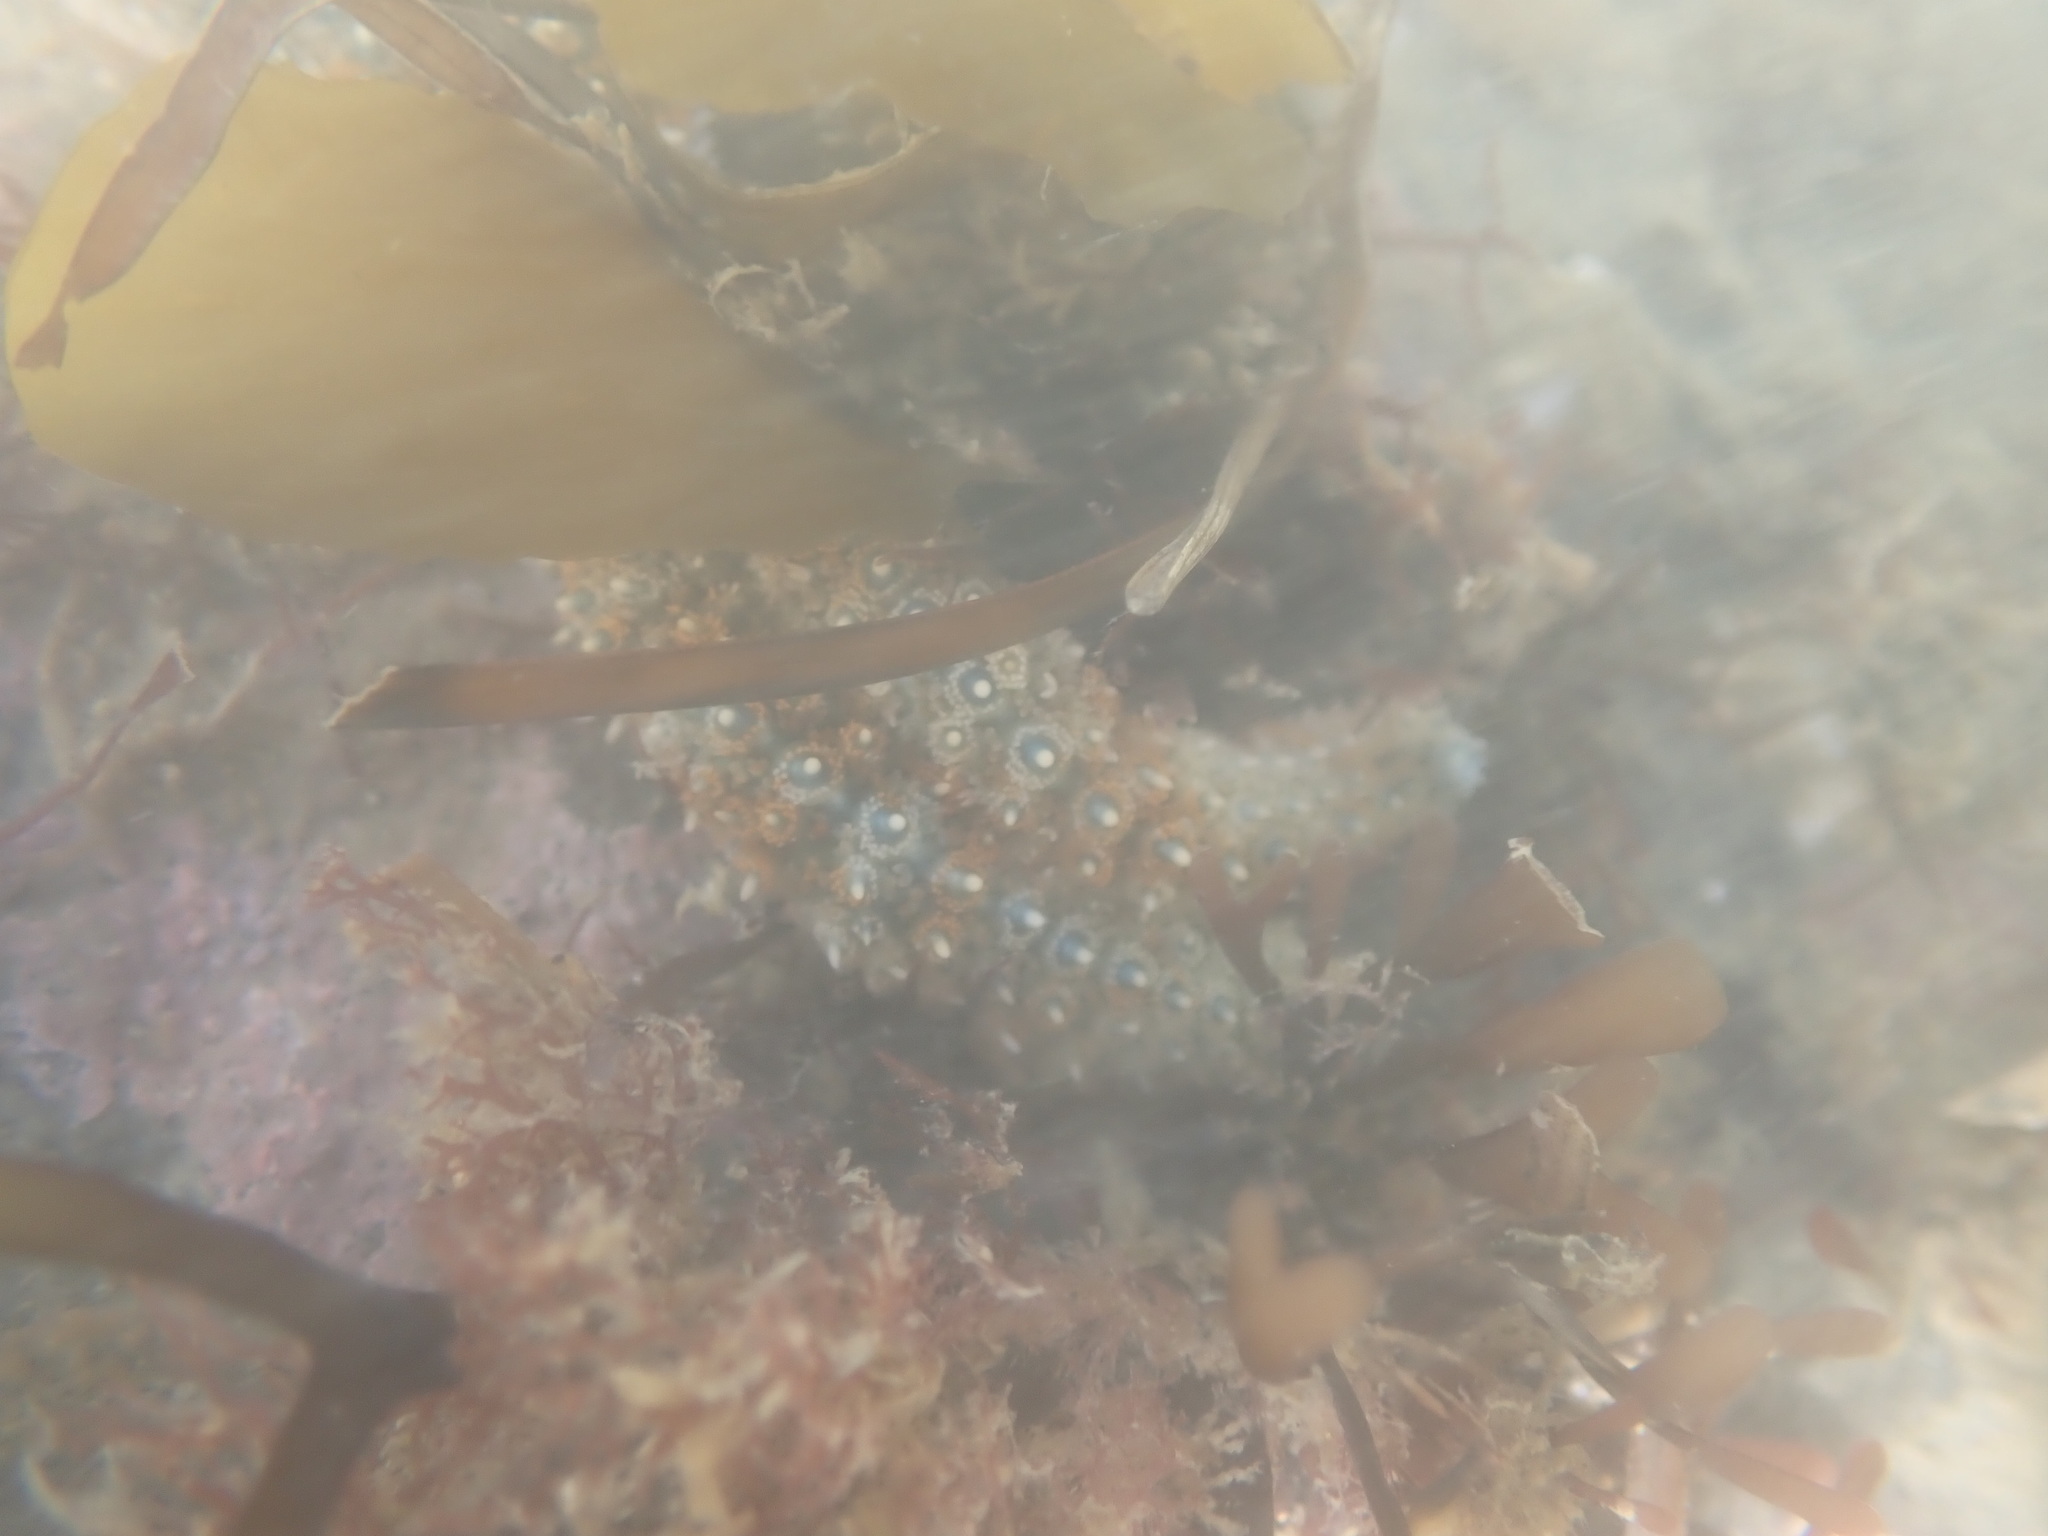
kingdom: Animalia
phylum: Echinodermata
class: Asteroidea
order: Forcipulatida
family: Asteriidae
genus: Coscinasterias
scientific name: Coscinasterias muricata
